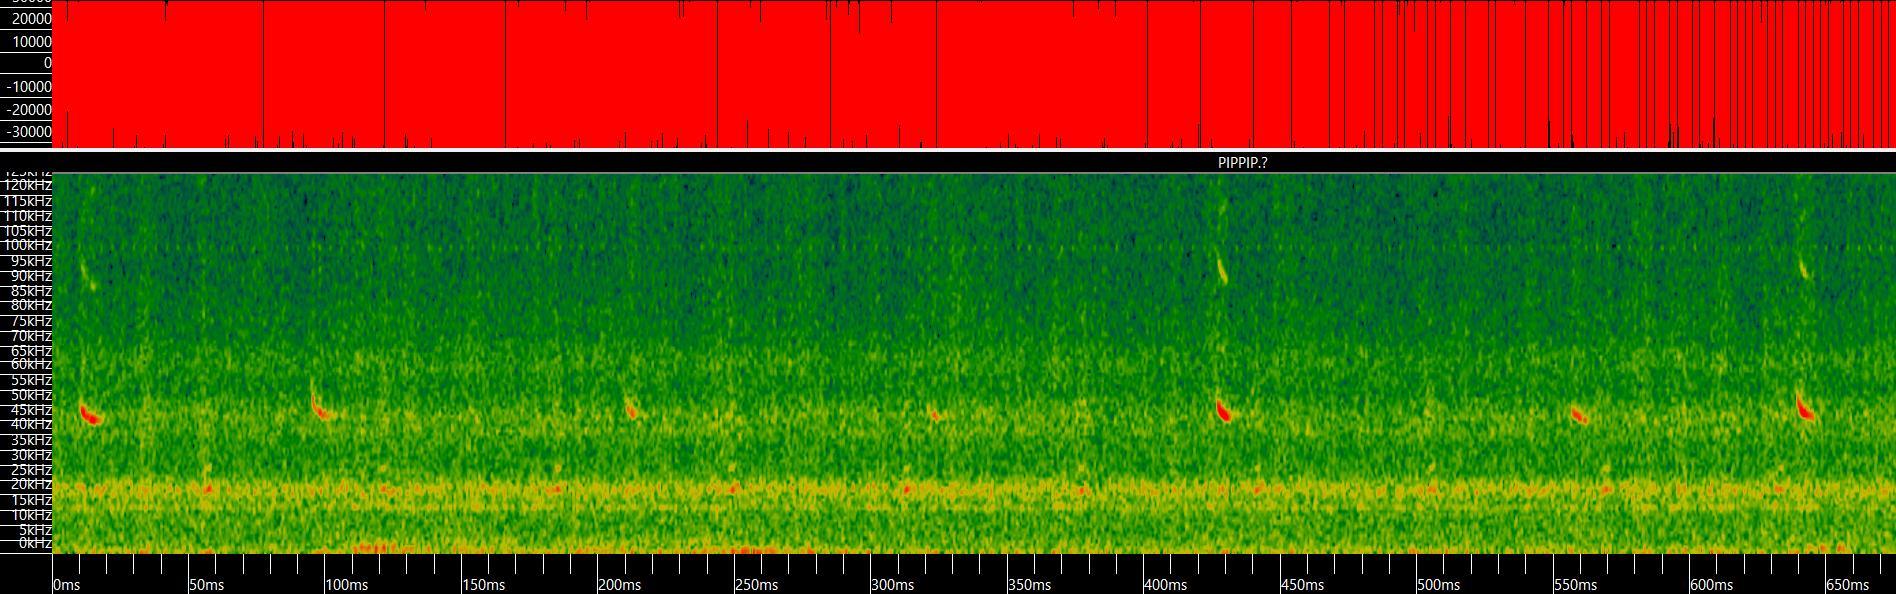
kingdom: Animalia
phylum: Chordata
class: Mammalia
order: Chiroptera
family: Vespertilionidae
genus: Pipistrellus
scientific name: Pipistrellus pipistrellus
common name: Common pipistrelle
